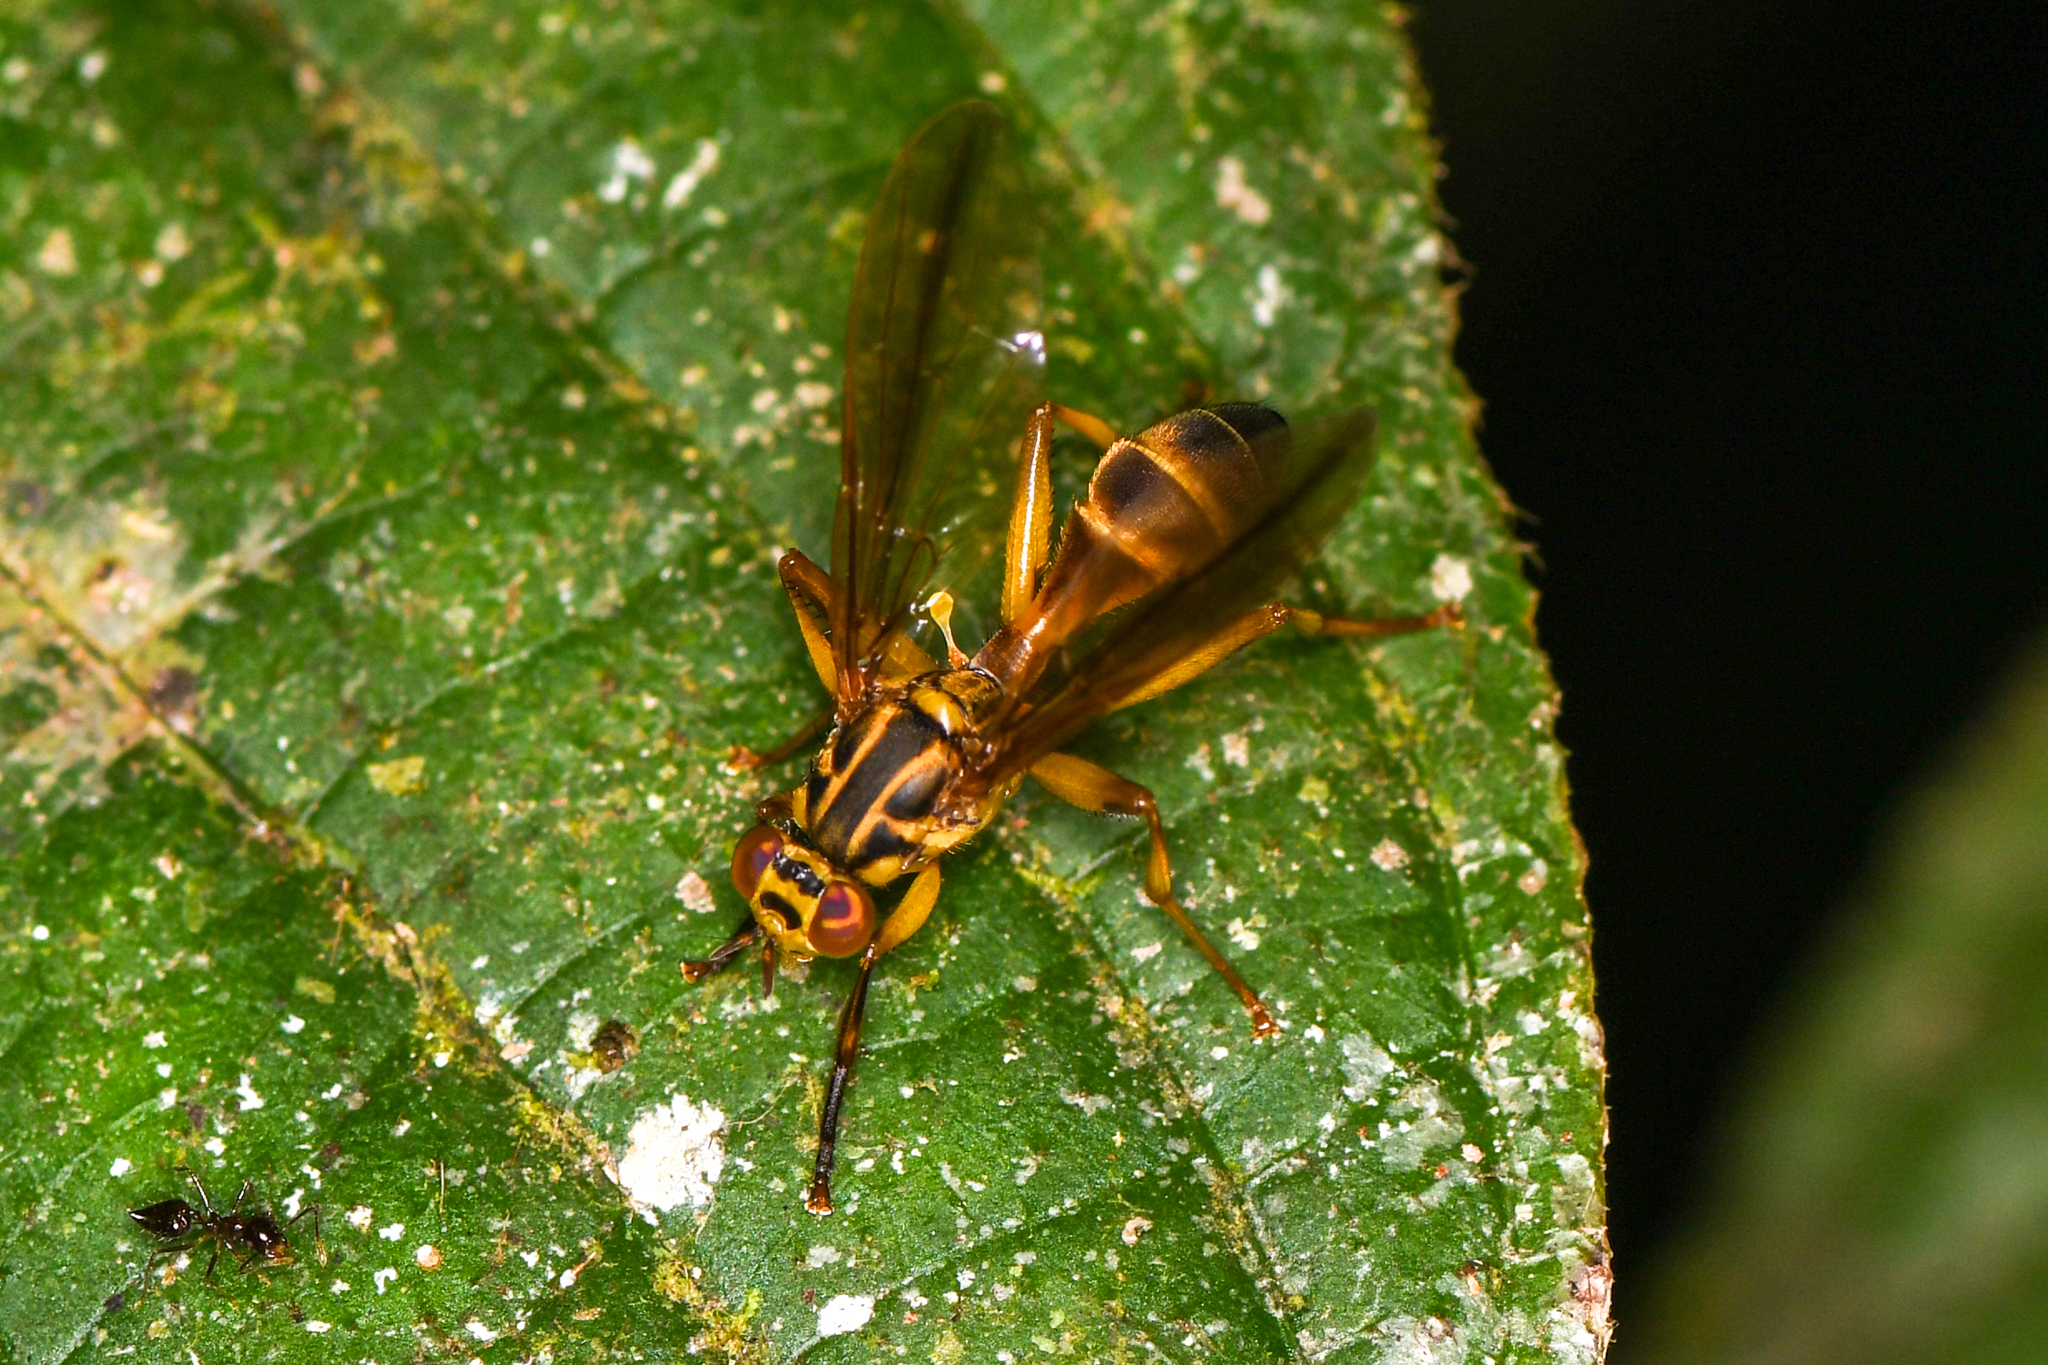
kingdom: Animalia
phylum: Arthropoda
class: Insecta
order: Diptera
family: Richardiidae
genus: Neoidiotypa
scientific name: Neoidiotypa sticta
